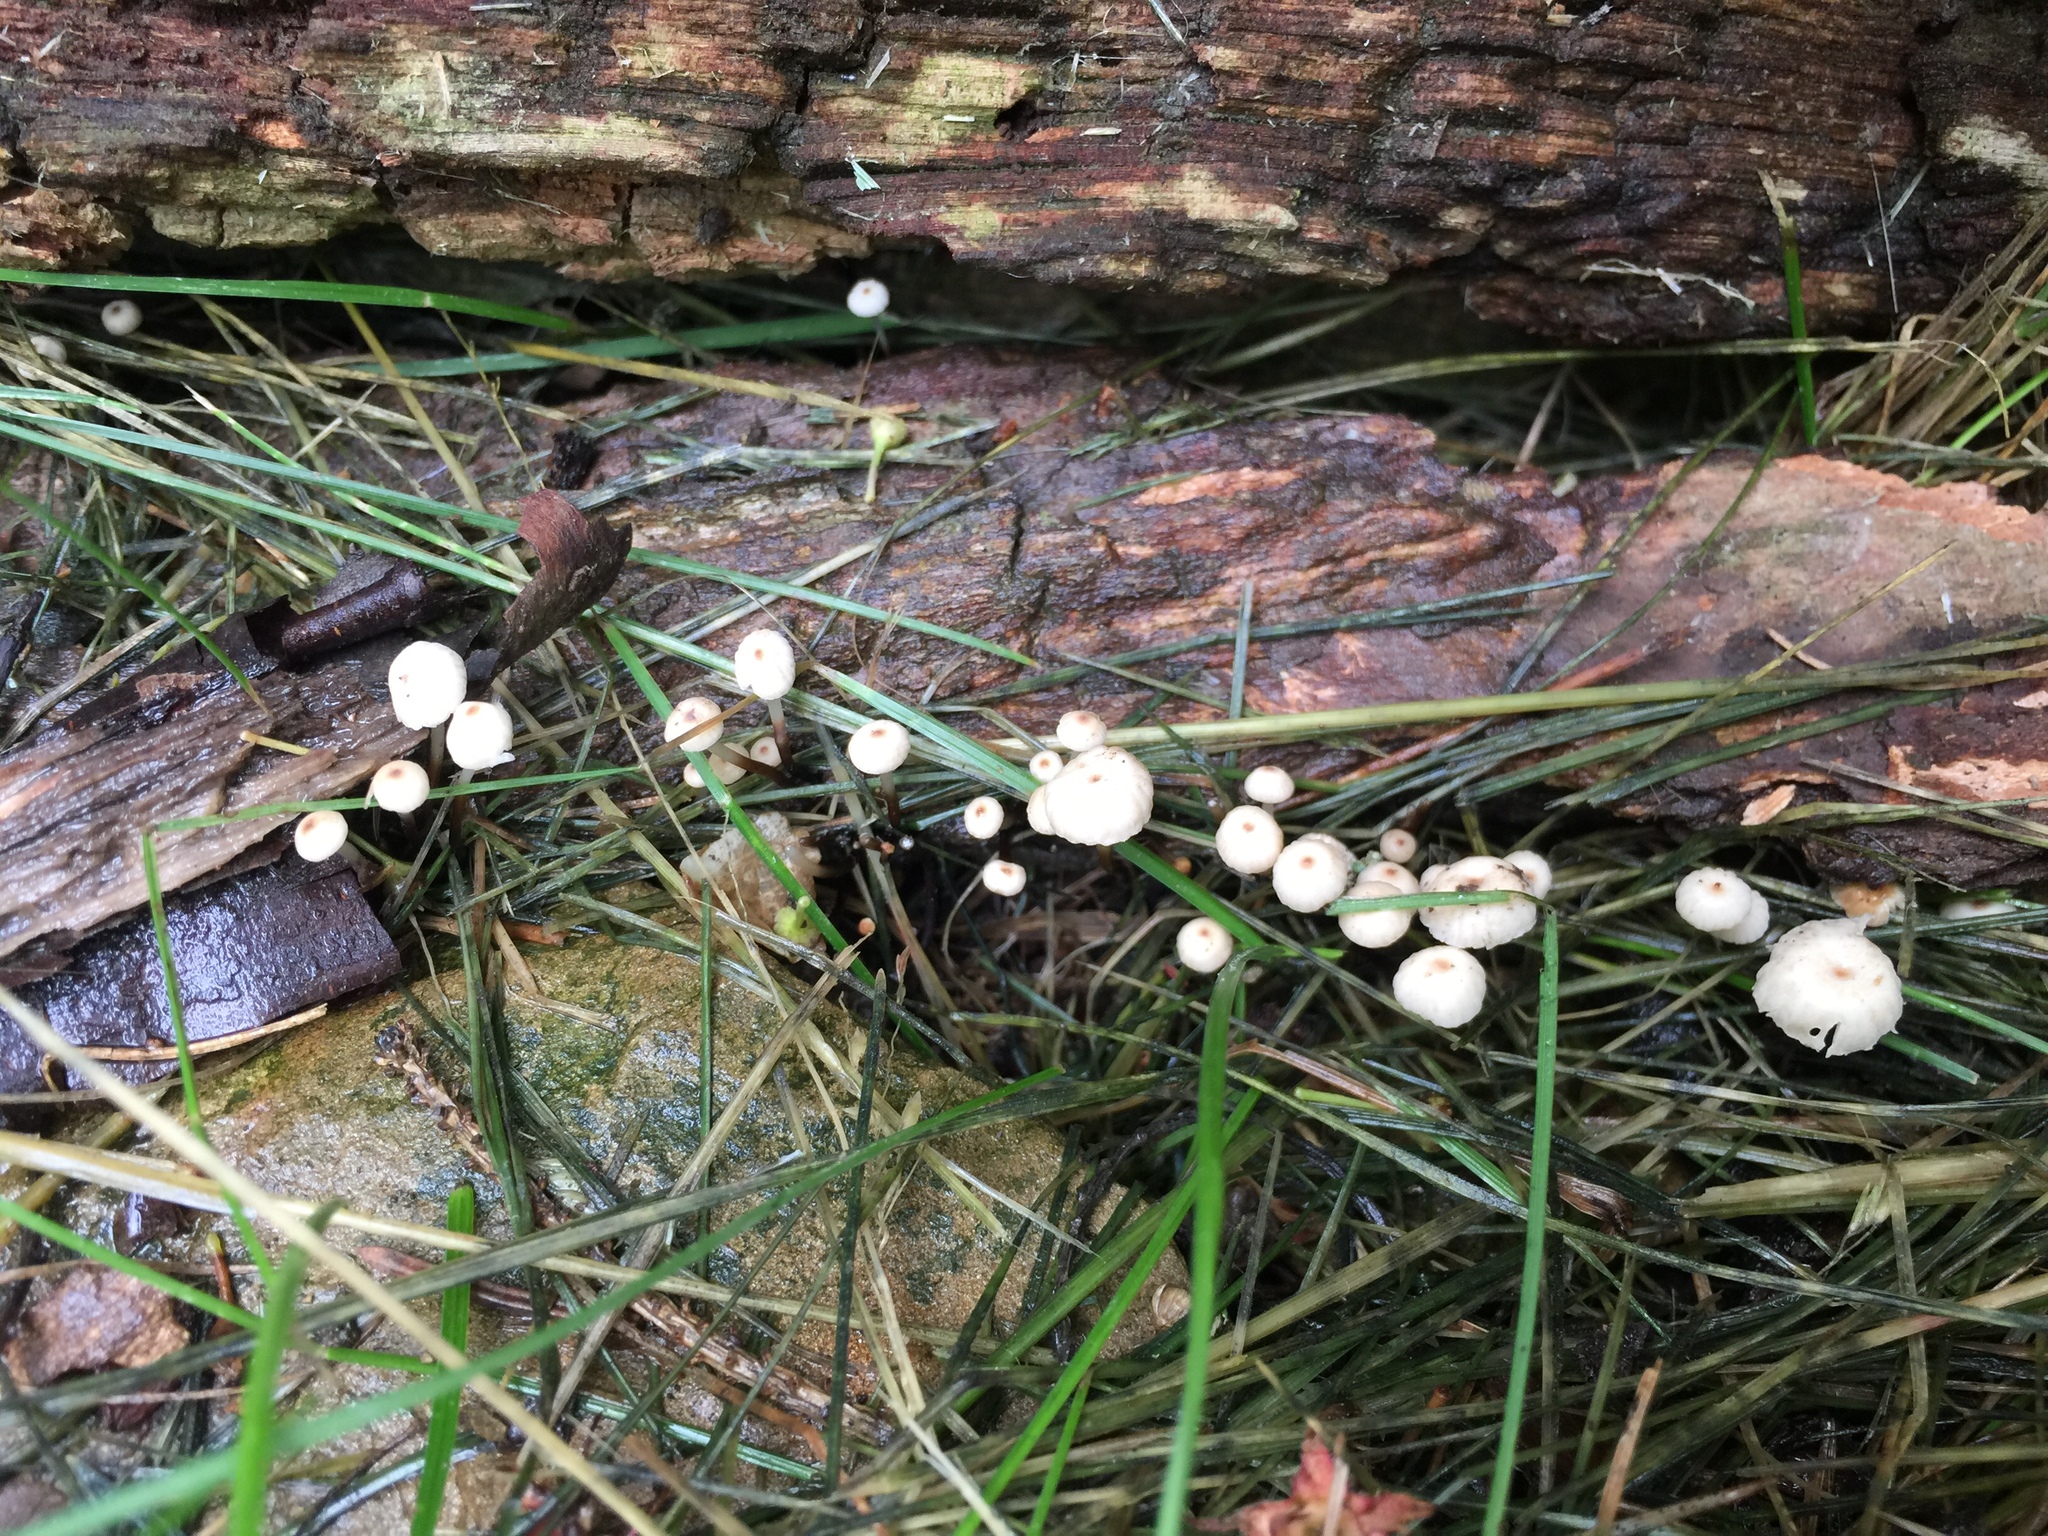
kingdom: Fungi
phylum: Basidiomycota
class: Agaricomycetes
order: Agaricales
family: Marasmiaceae
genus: Marasmius
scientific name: Marasmius rotula
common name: Collared parachute
